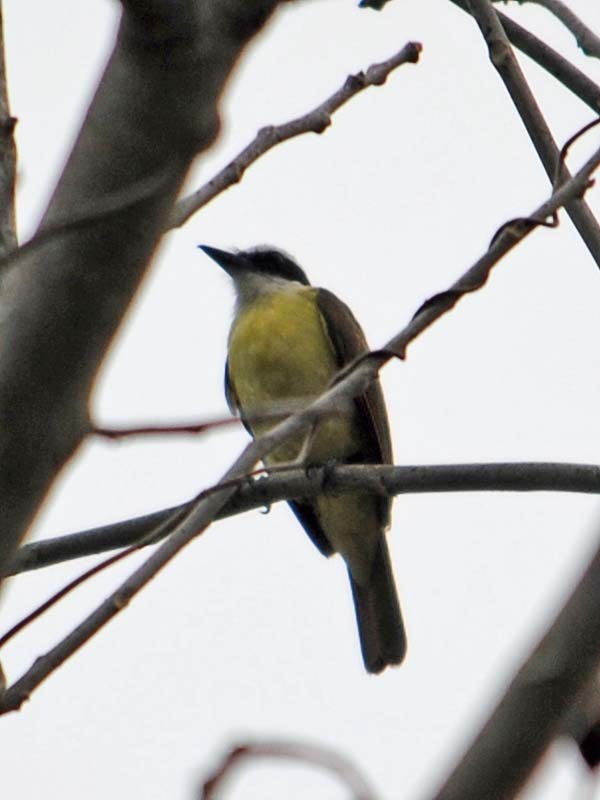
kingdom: Animalia
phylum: Chordata
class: Aves
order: Passeriformes
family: Tyrannidae
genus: Pitangus
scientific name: Pitangus sulphuratus
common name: Great kiskadee
